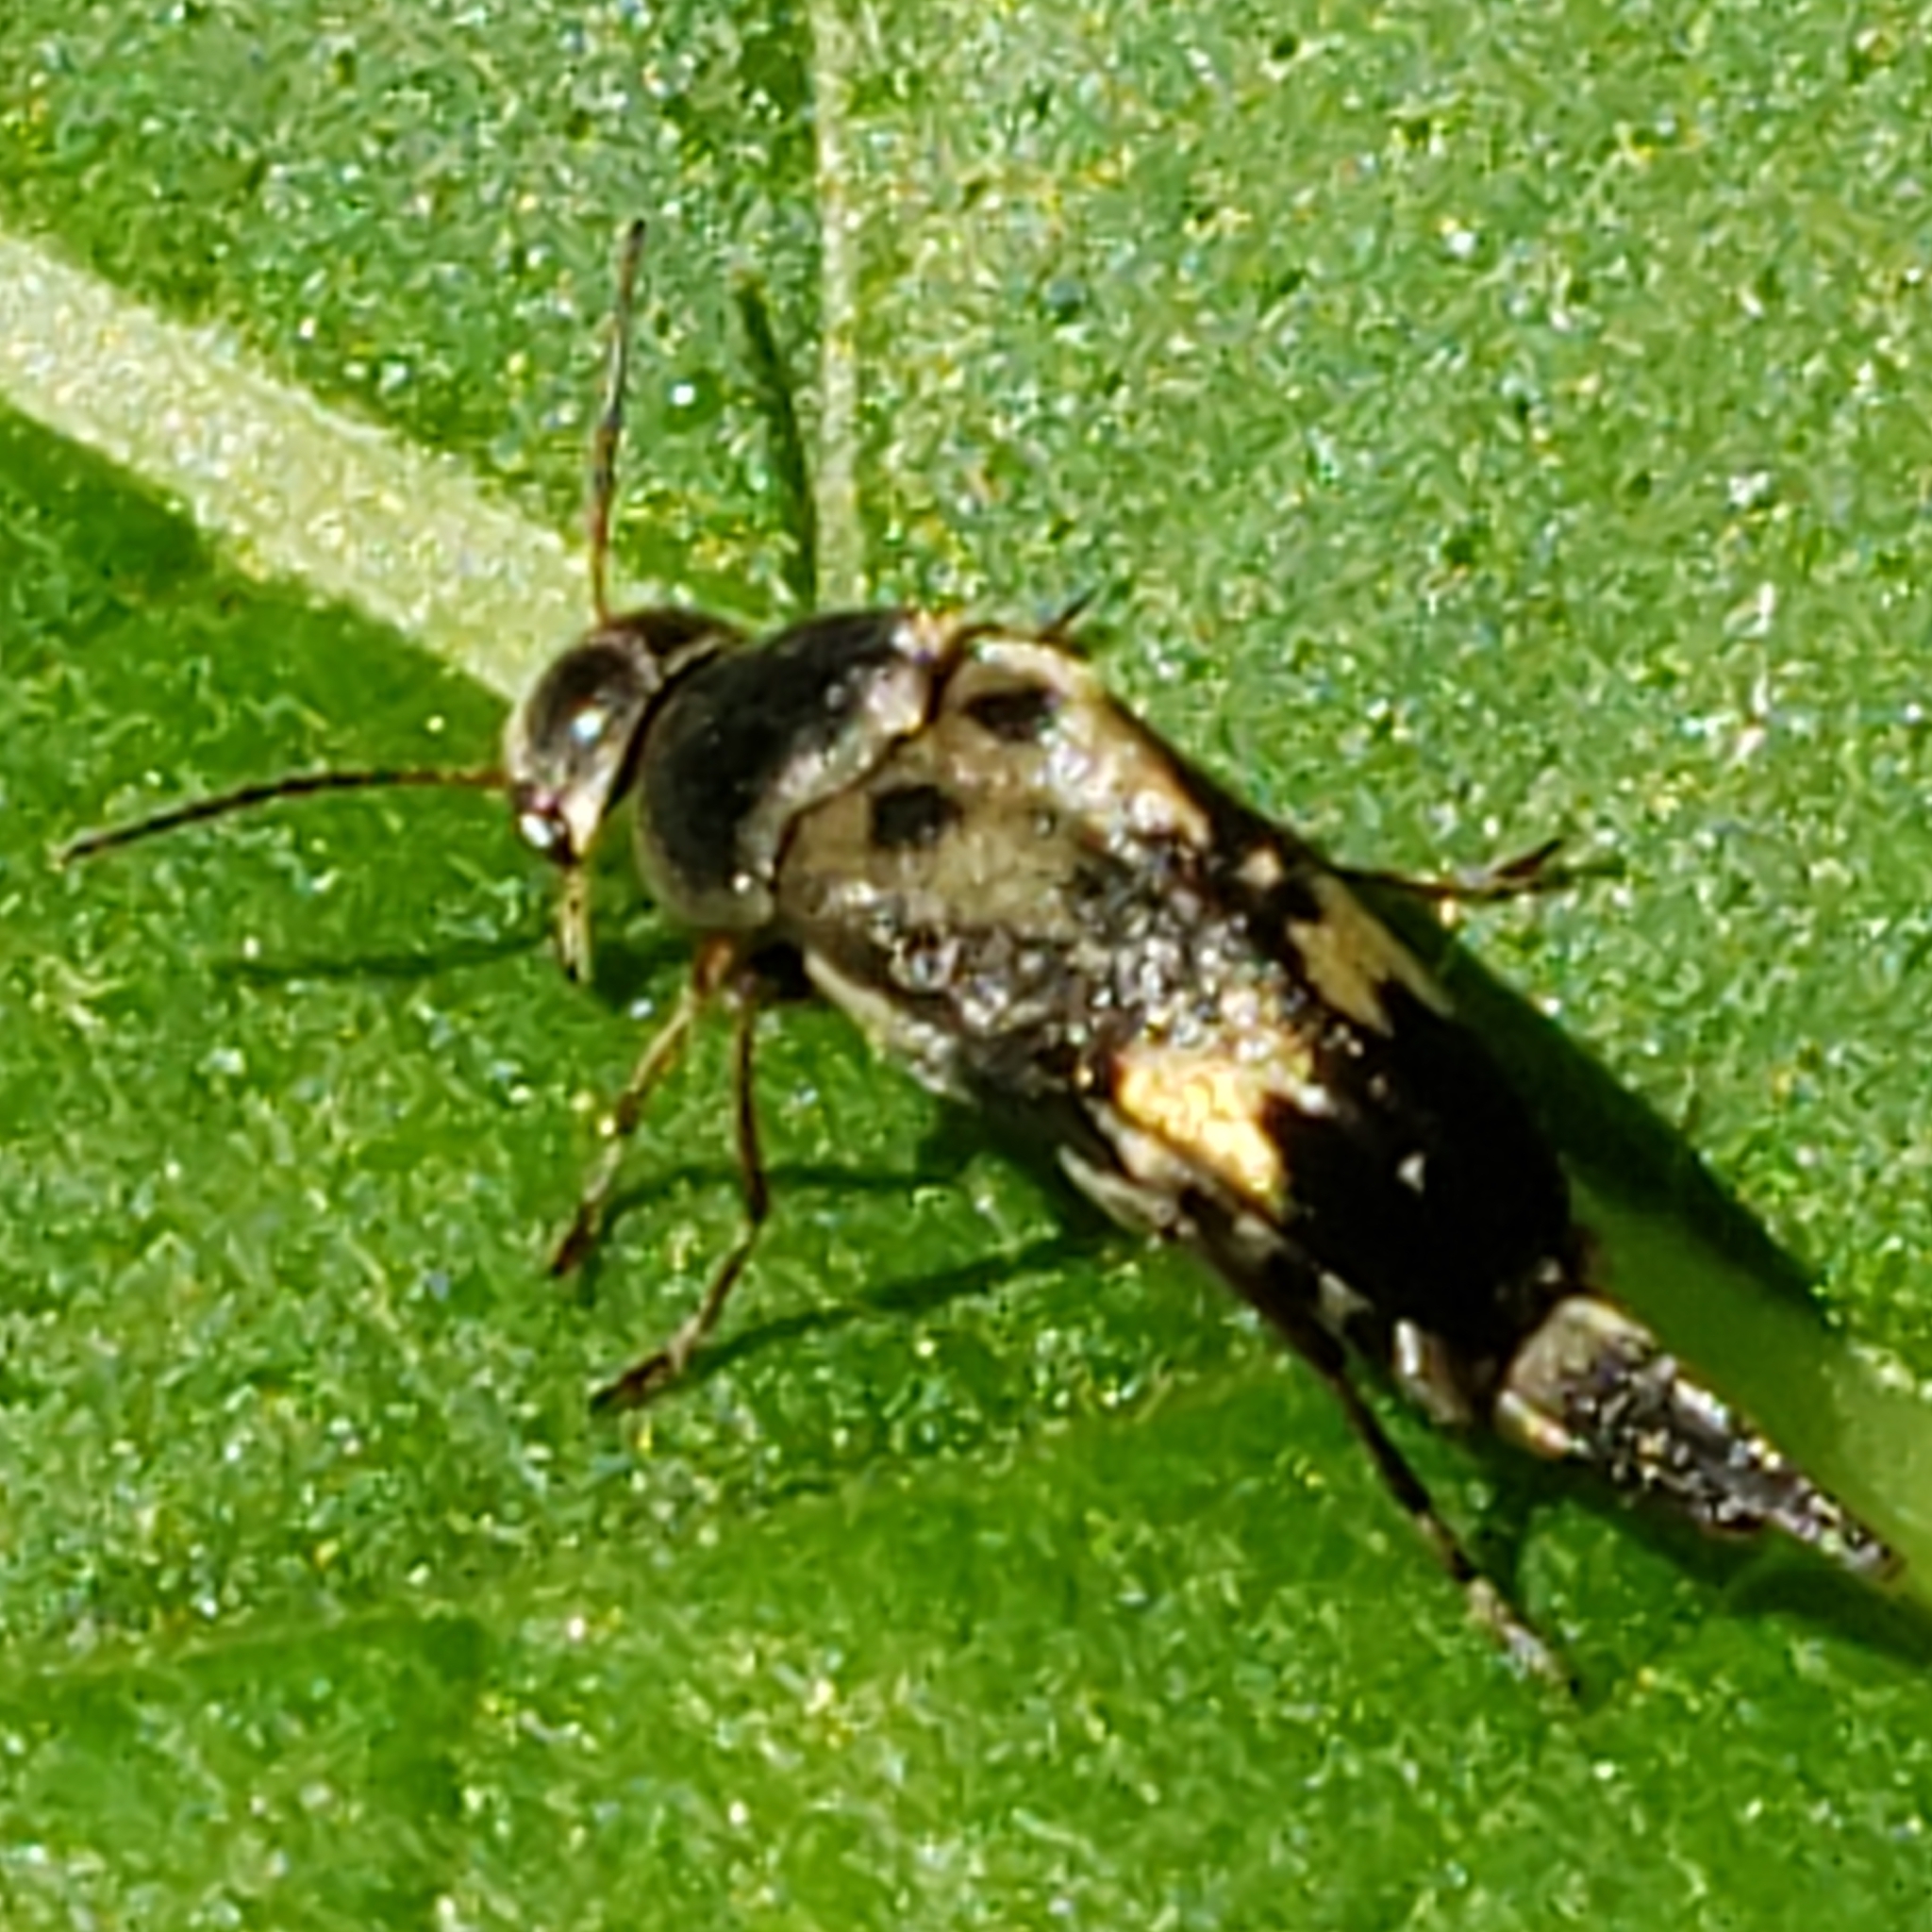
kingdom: Animalia
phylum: Arthropoda
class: Insecta
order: Coleoptera
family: Mordellidae
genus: Glipa
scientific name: Glipa oculata
